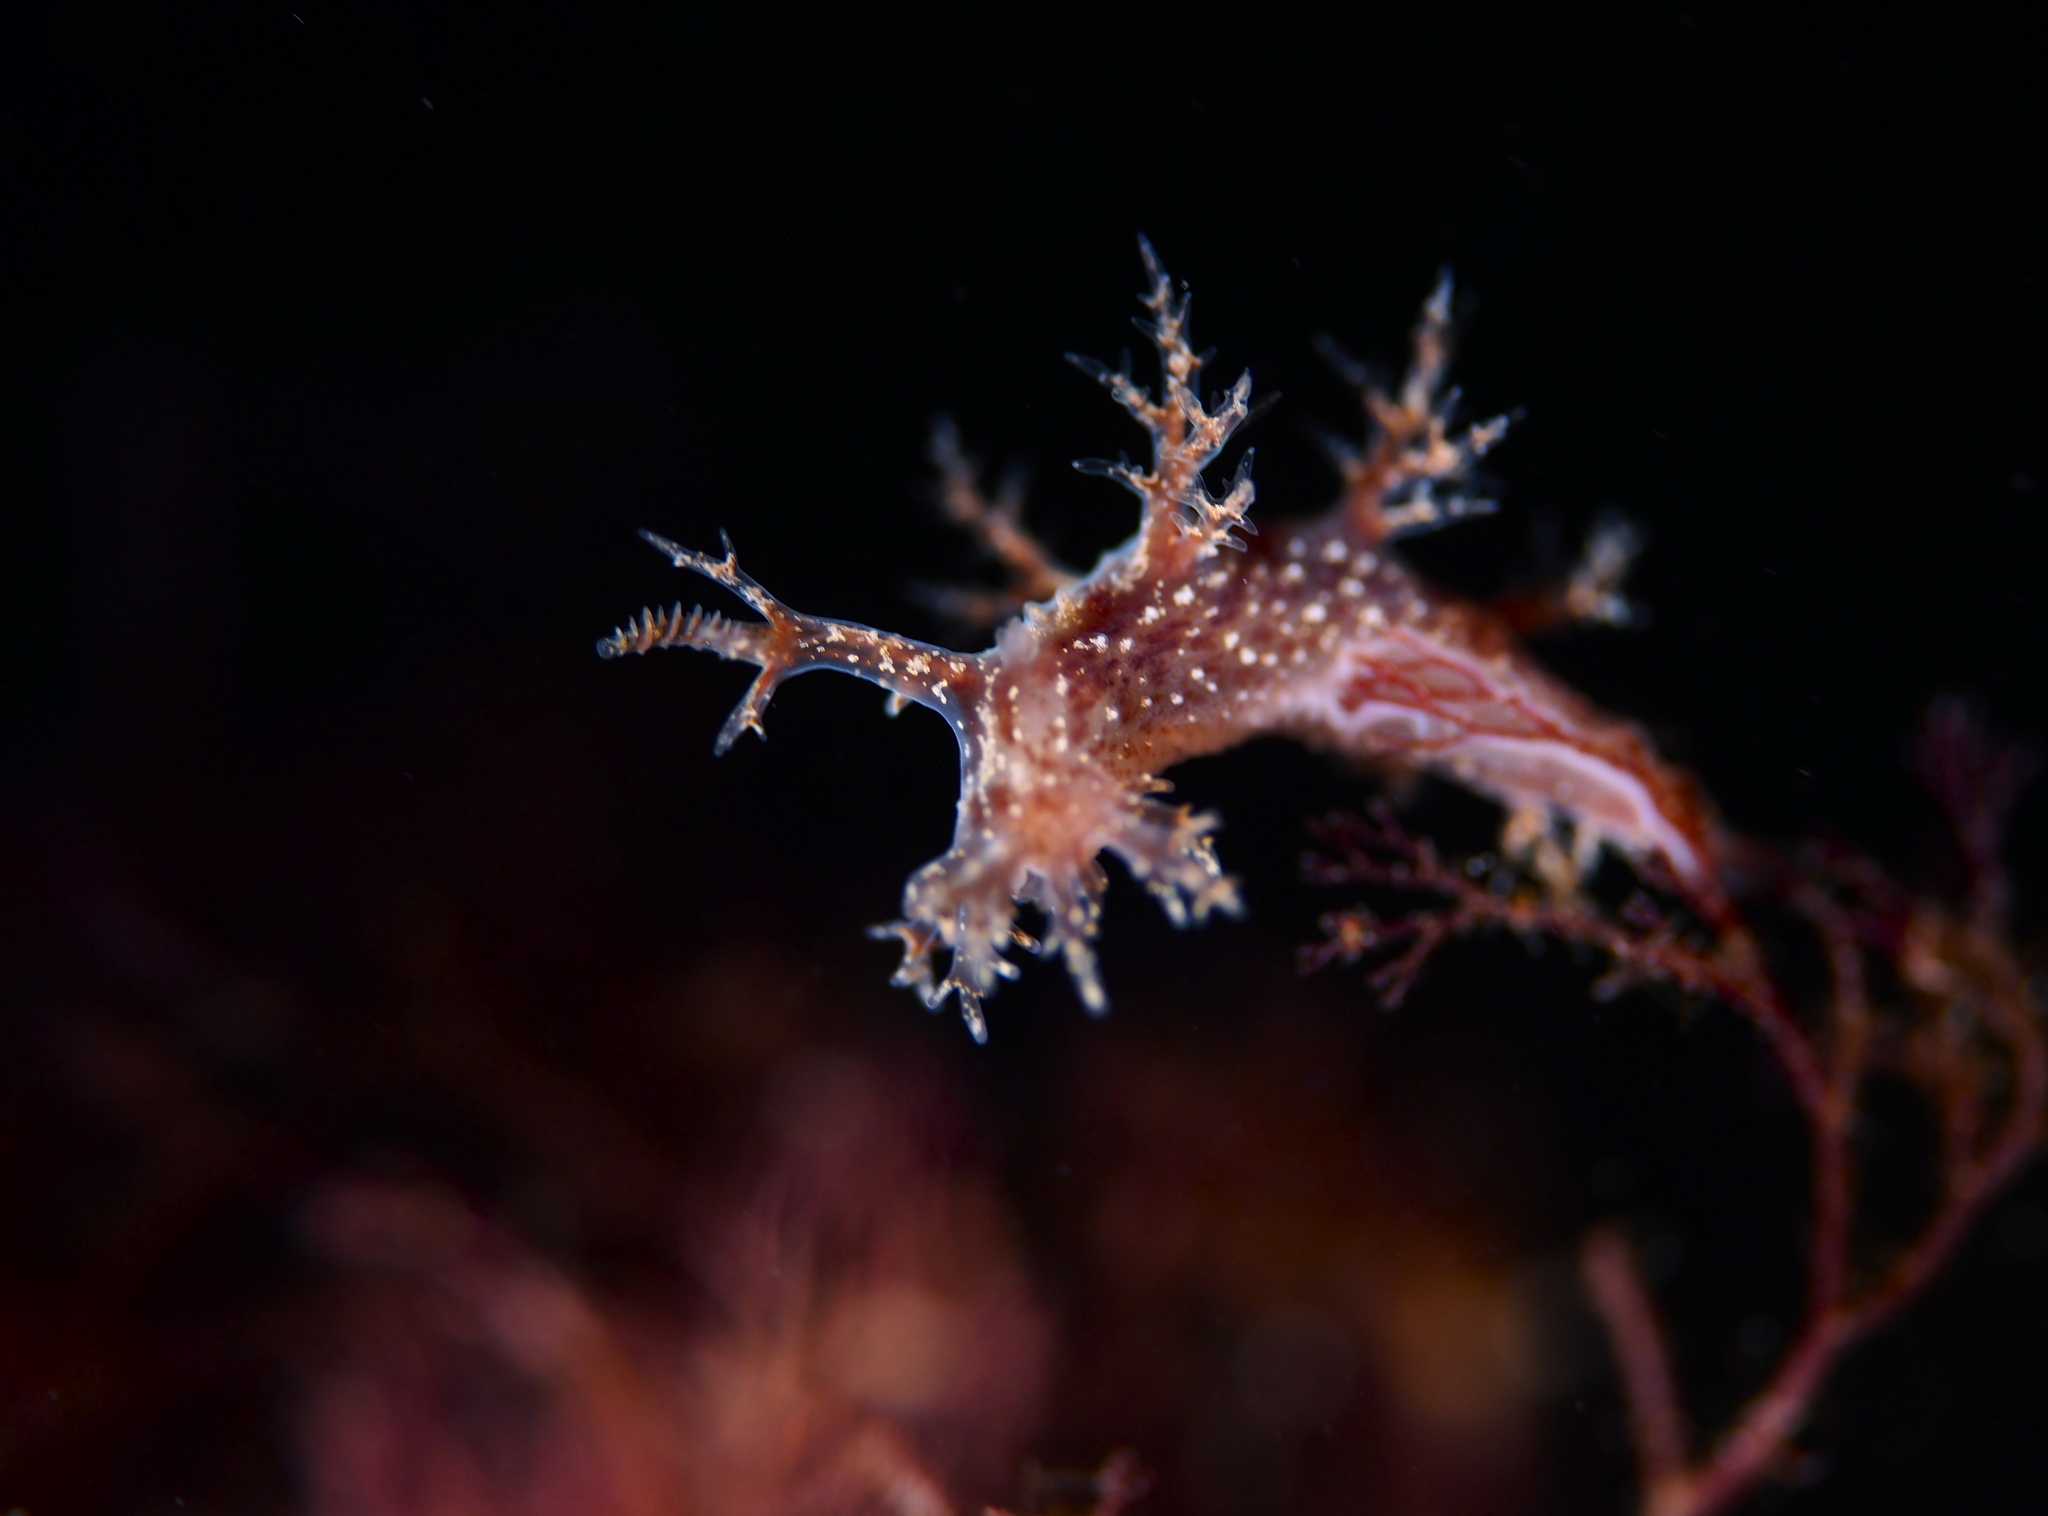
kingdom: Animalia
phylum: Mollusca
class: Gastropoda
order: Nudibranchia
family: Dendronotidae
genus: Dendronotus
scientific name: Dendronotus frondosus
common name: Bushy-backed nudibranch
